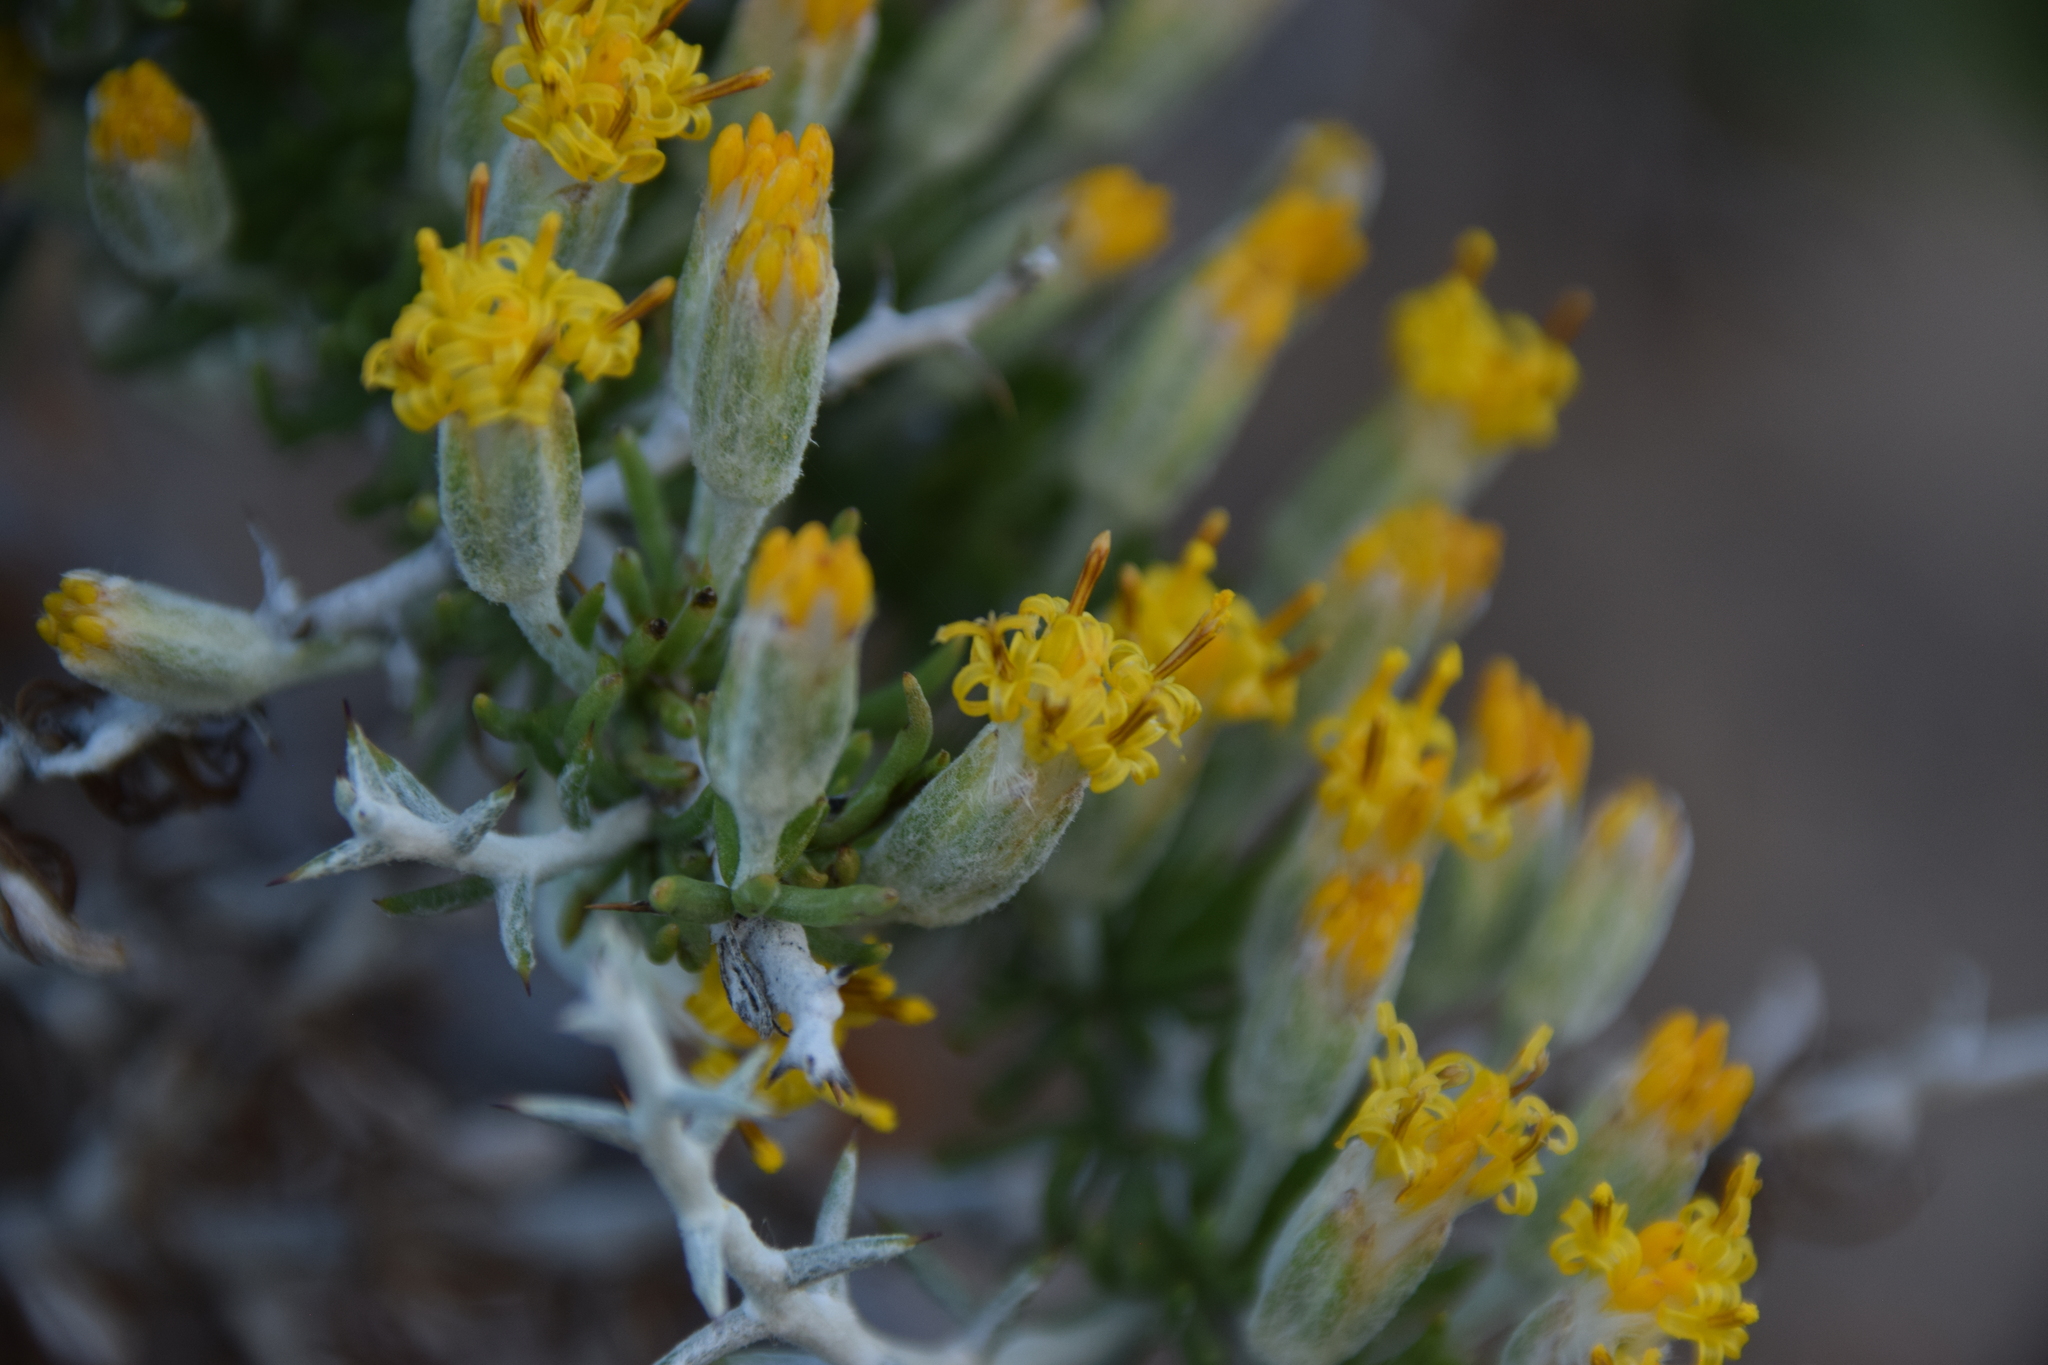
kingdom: Plantae
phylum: Tracheophyta
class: Magnoliopsida
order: Asterales
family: Asteraceae
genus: Tetradymia
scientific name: Tetradymia spinosa
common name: Thorny horsebrush
